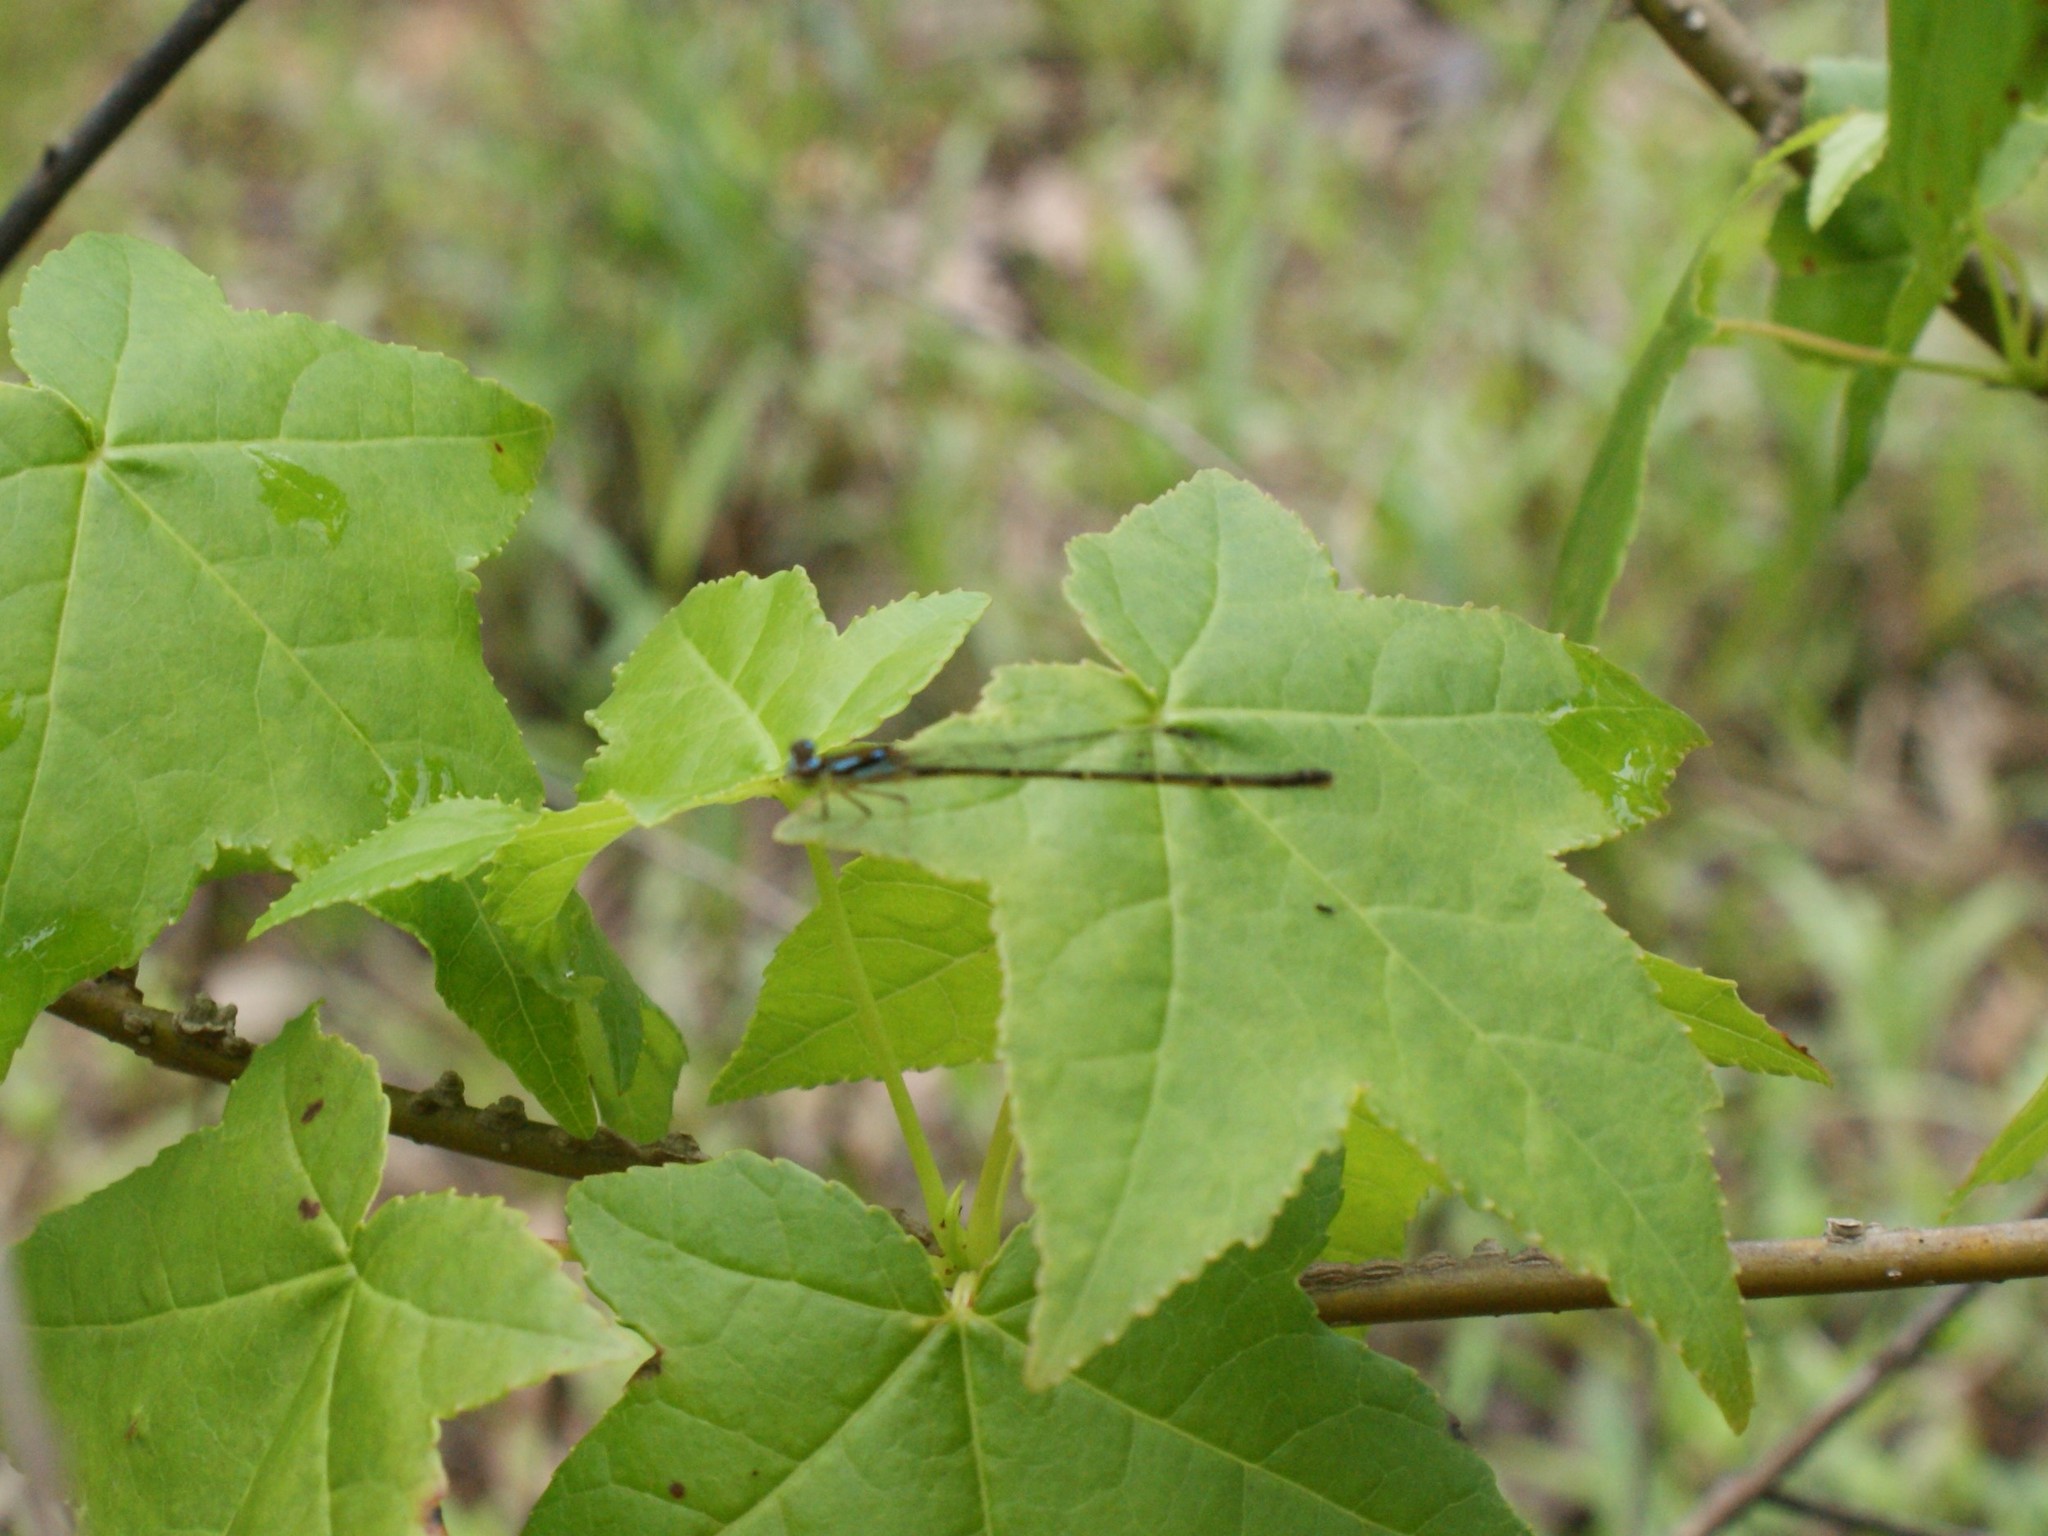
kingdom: Animalia
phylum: Arthropoda
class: Insecta
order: Odonata
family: Coenagrionidae
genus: Ischnura
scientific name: Ischnura posita
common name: Fragile forktail
